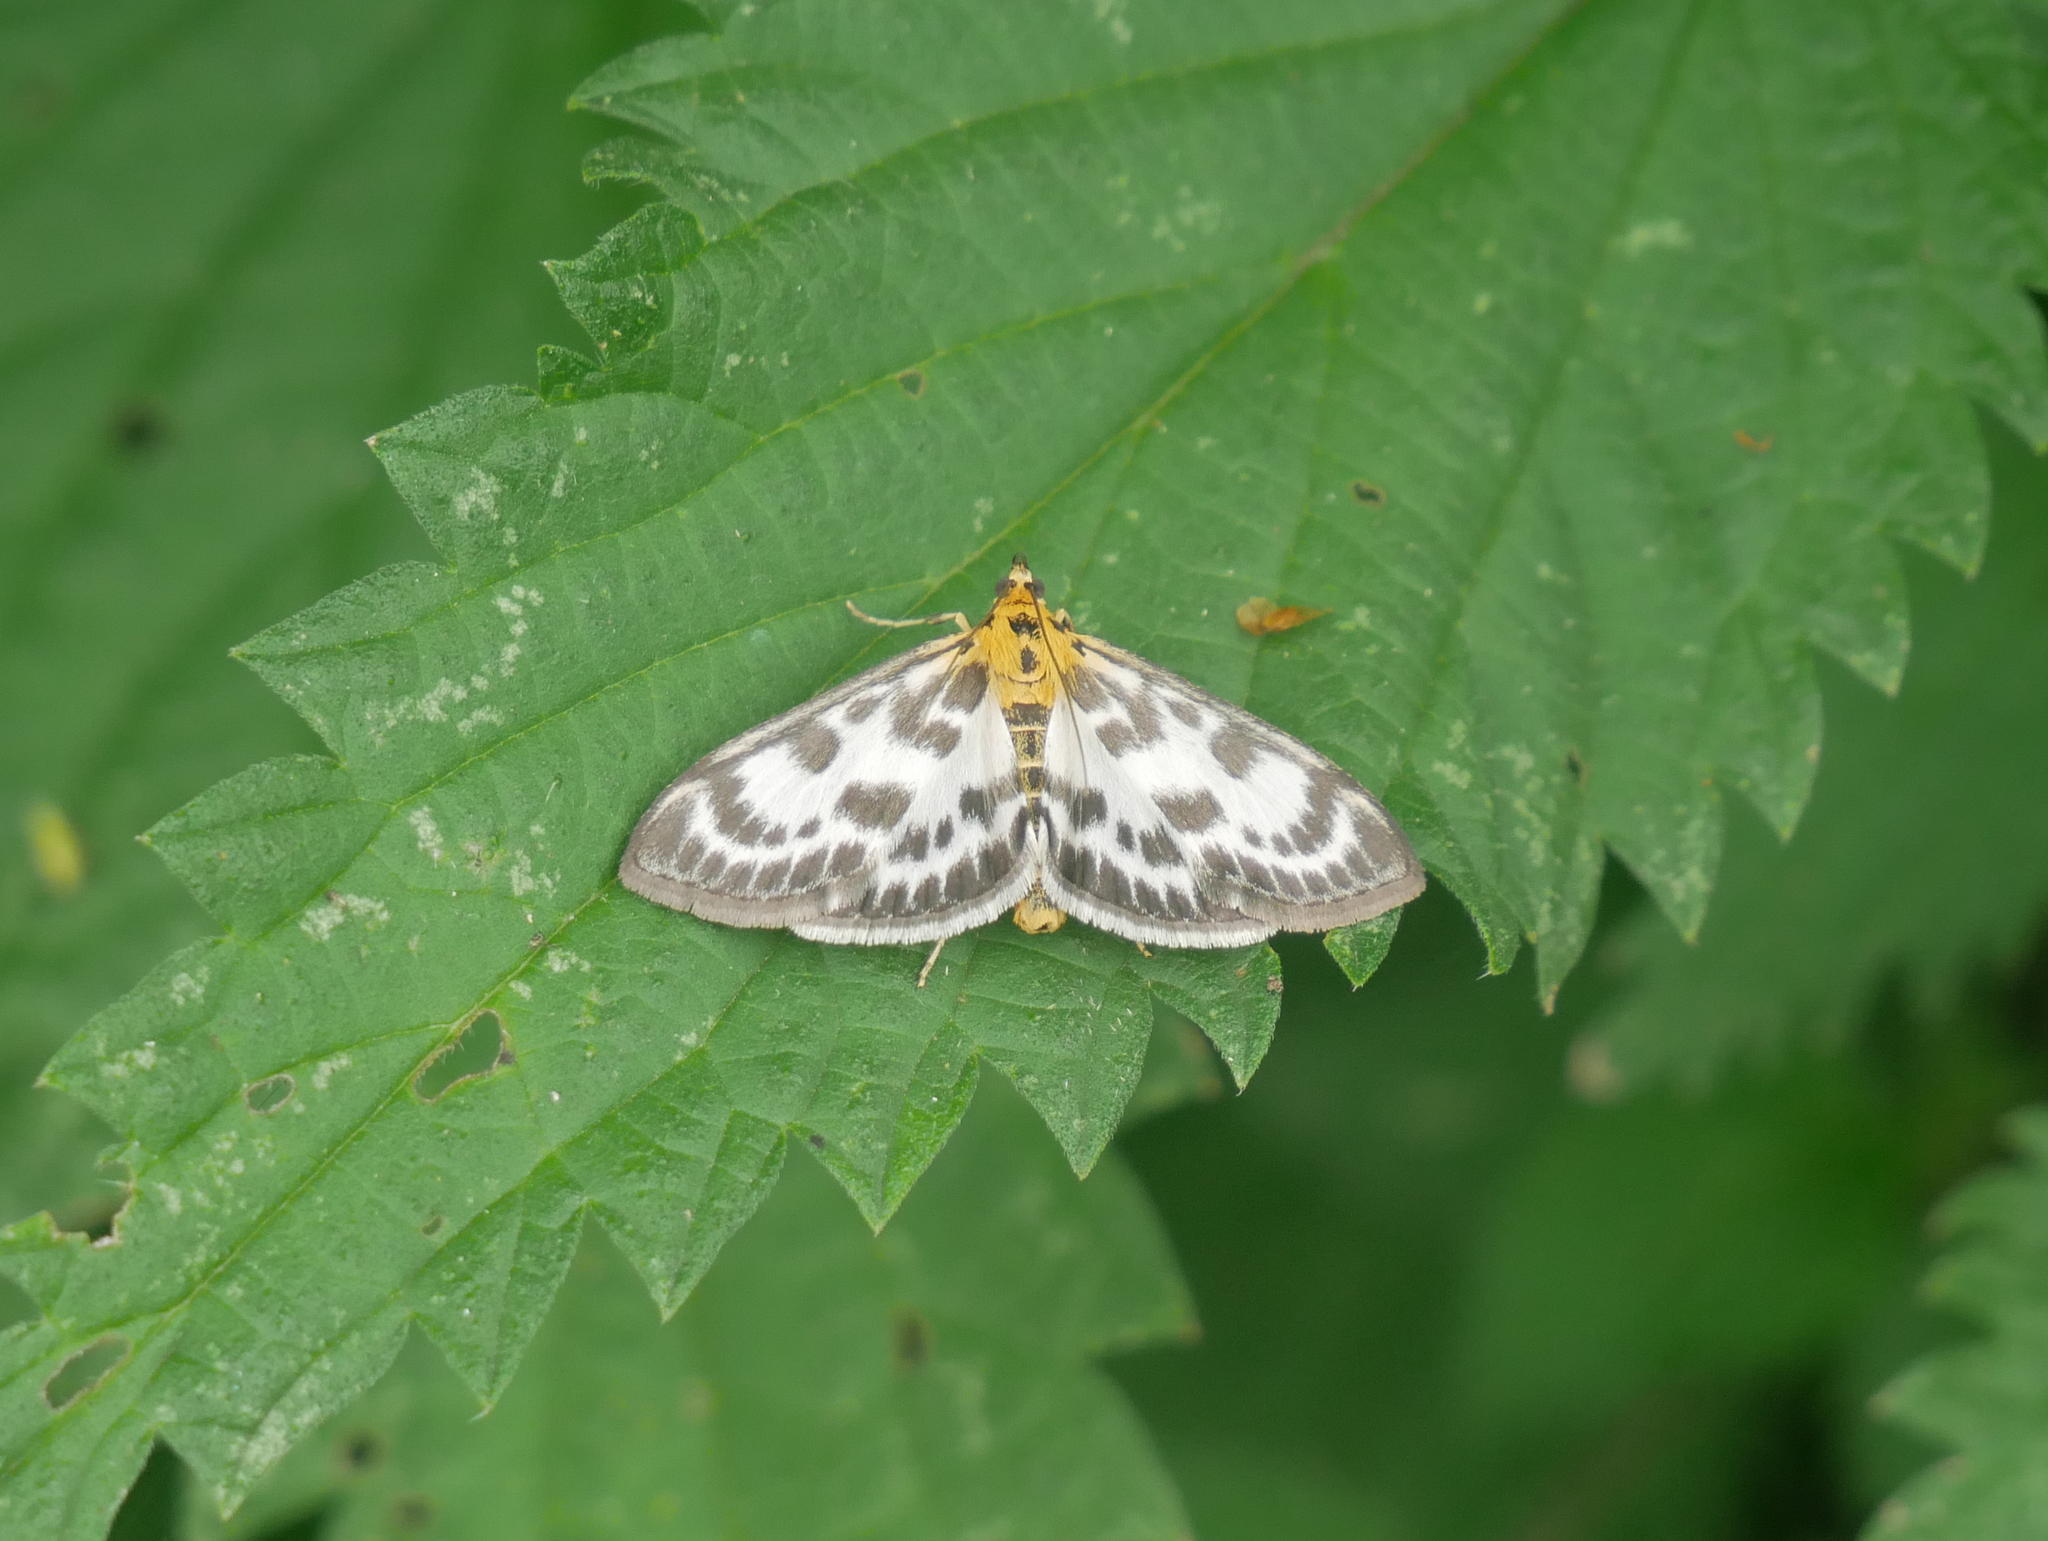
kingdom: Animalia
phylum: Arthropoda
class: Insecta
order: Lepidoptera
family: Crambidae
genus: Anania
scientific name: Anania hortulata
